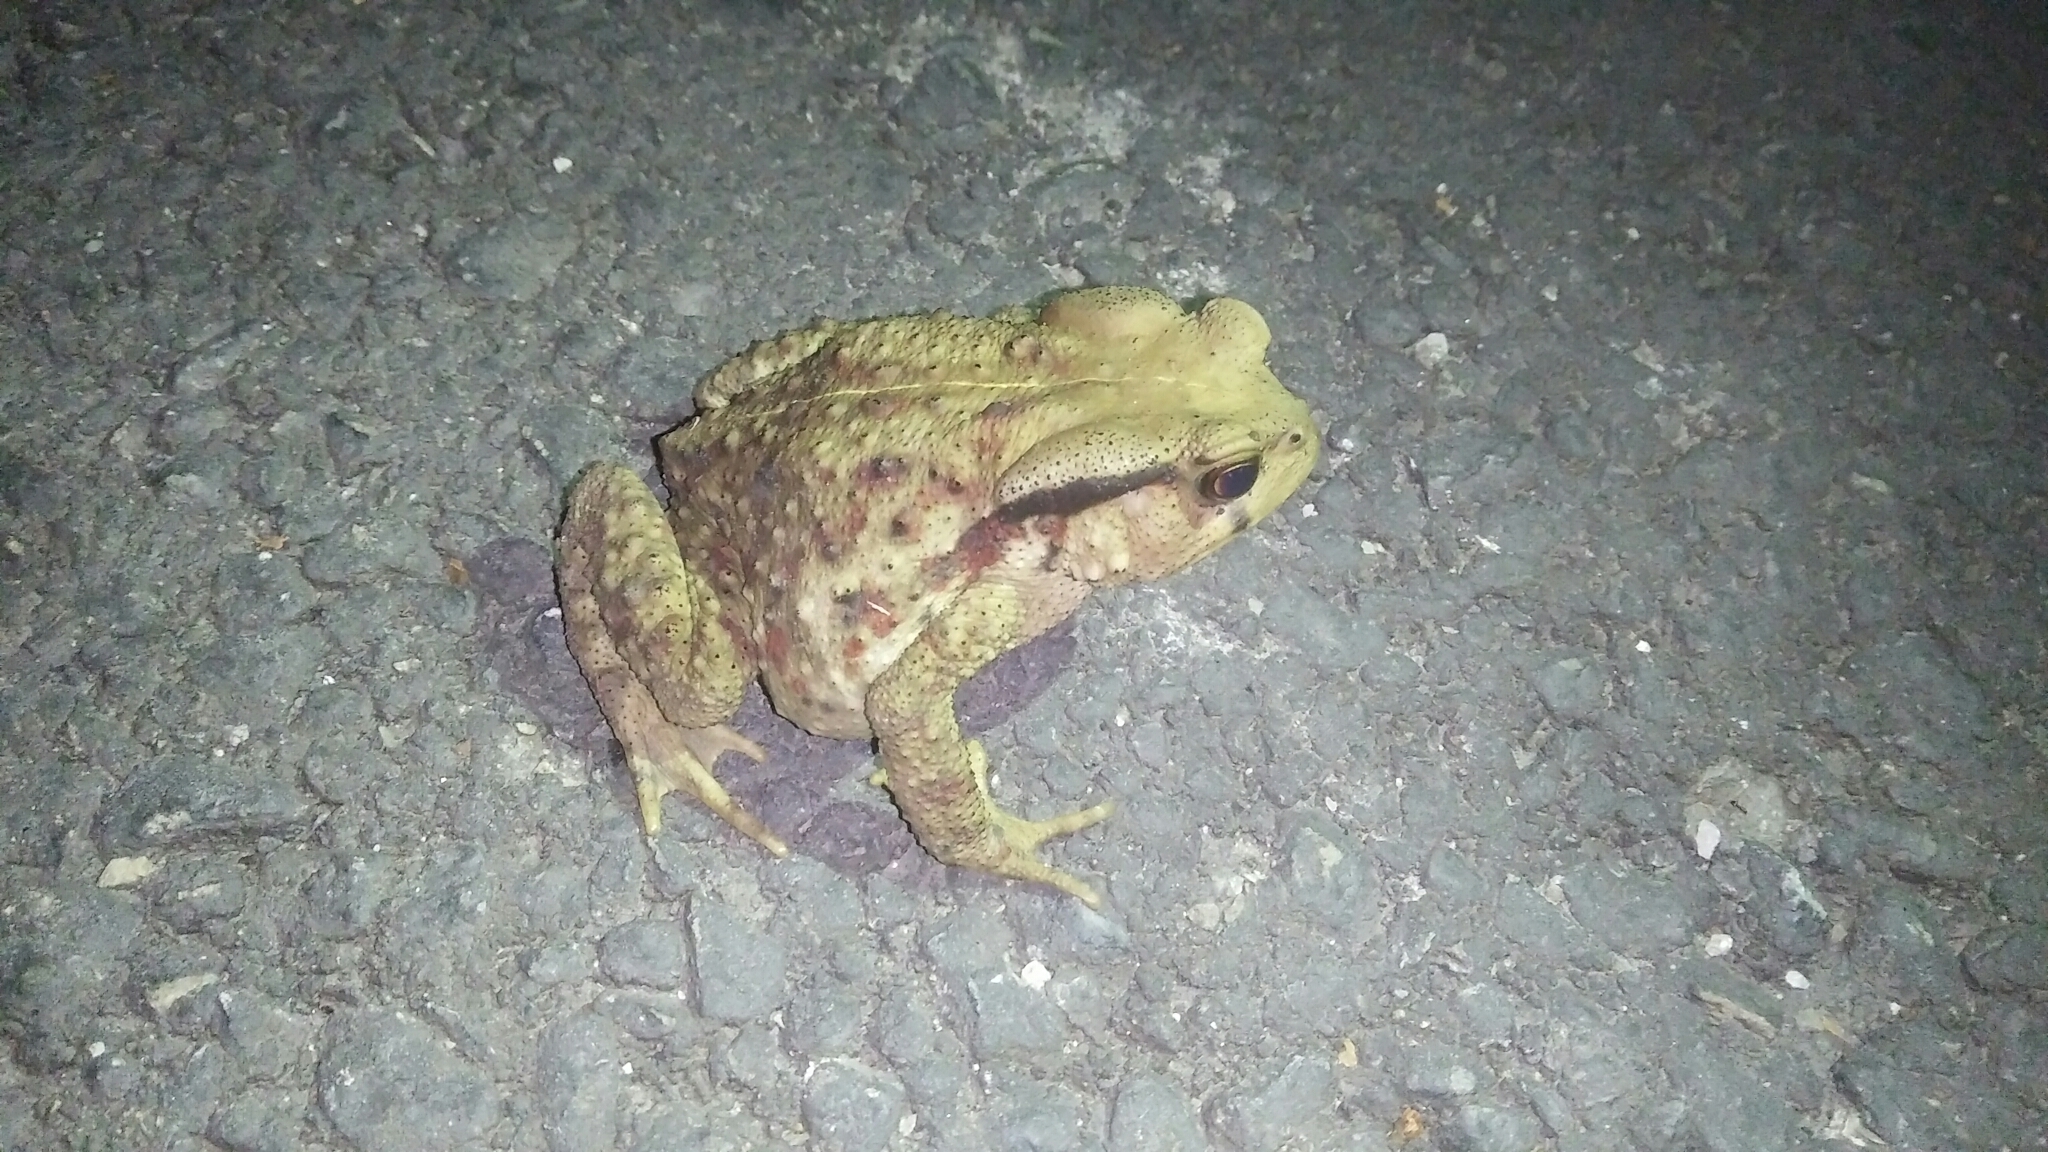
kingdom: Animalia
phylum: Chordata
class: Amphibia
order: Anura
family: Bufonidae
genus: Bufo
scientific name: Bufo bankorensis
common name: Bankor toad
